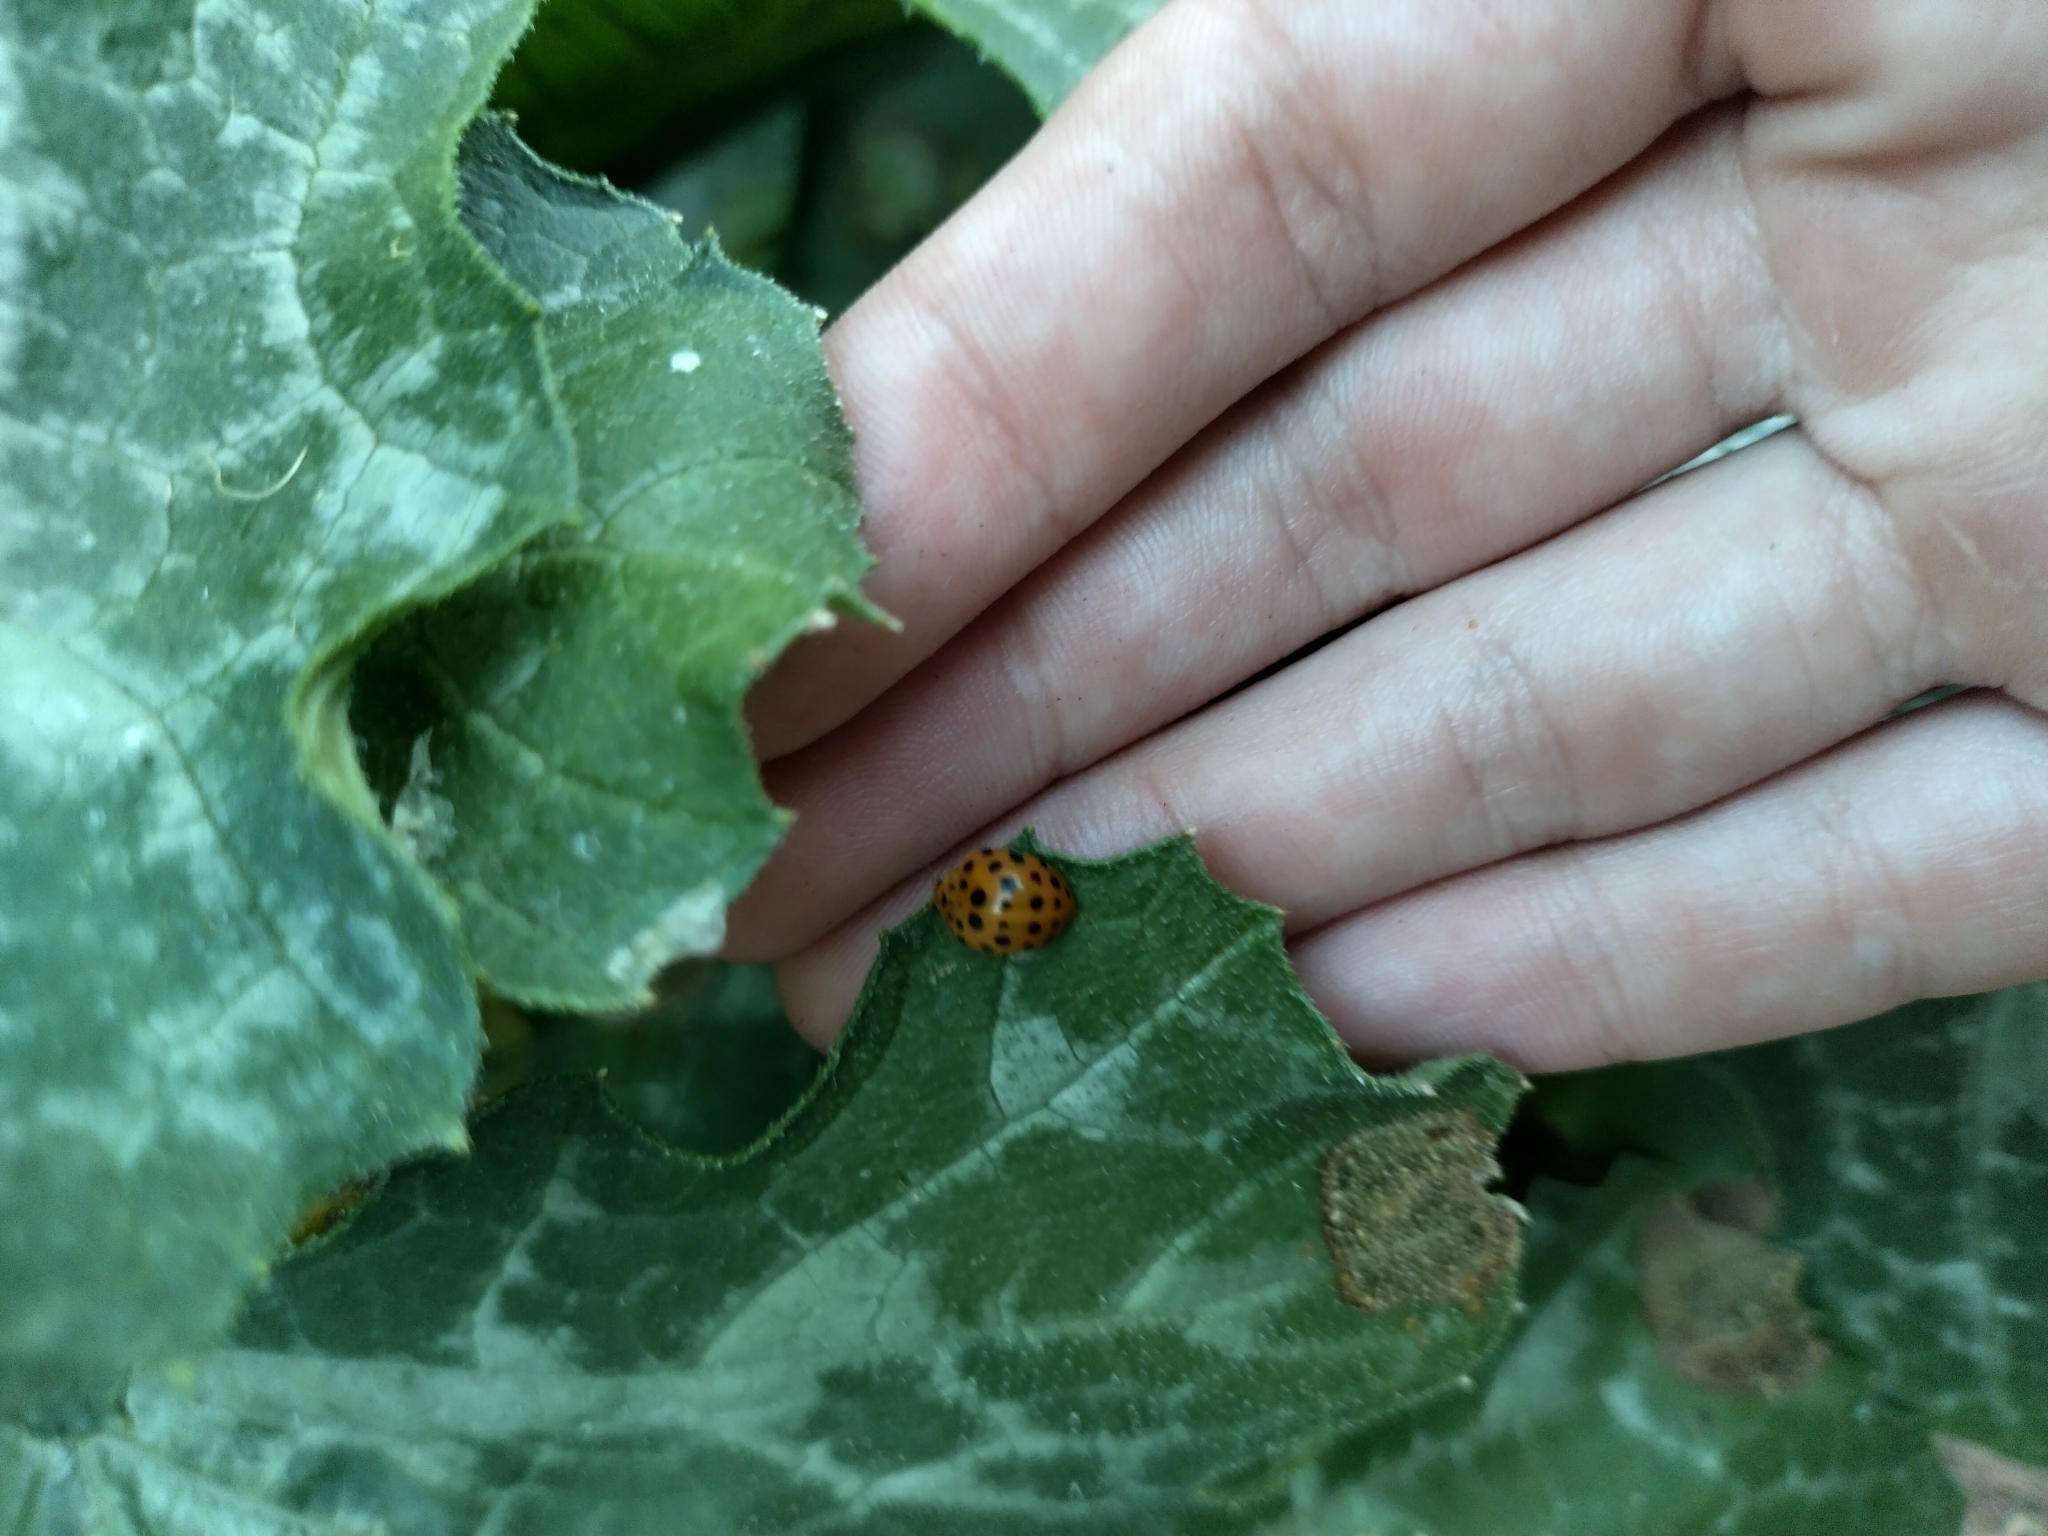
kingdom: Animalia
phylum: Arthropoda
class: Insecta
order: Coleoptera
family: Coccinellidae
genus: Henosepilachna
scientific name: Henosepilachna sumbana
